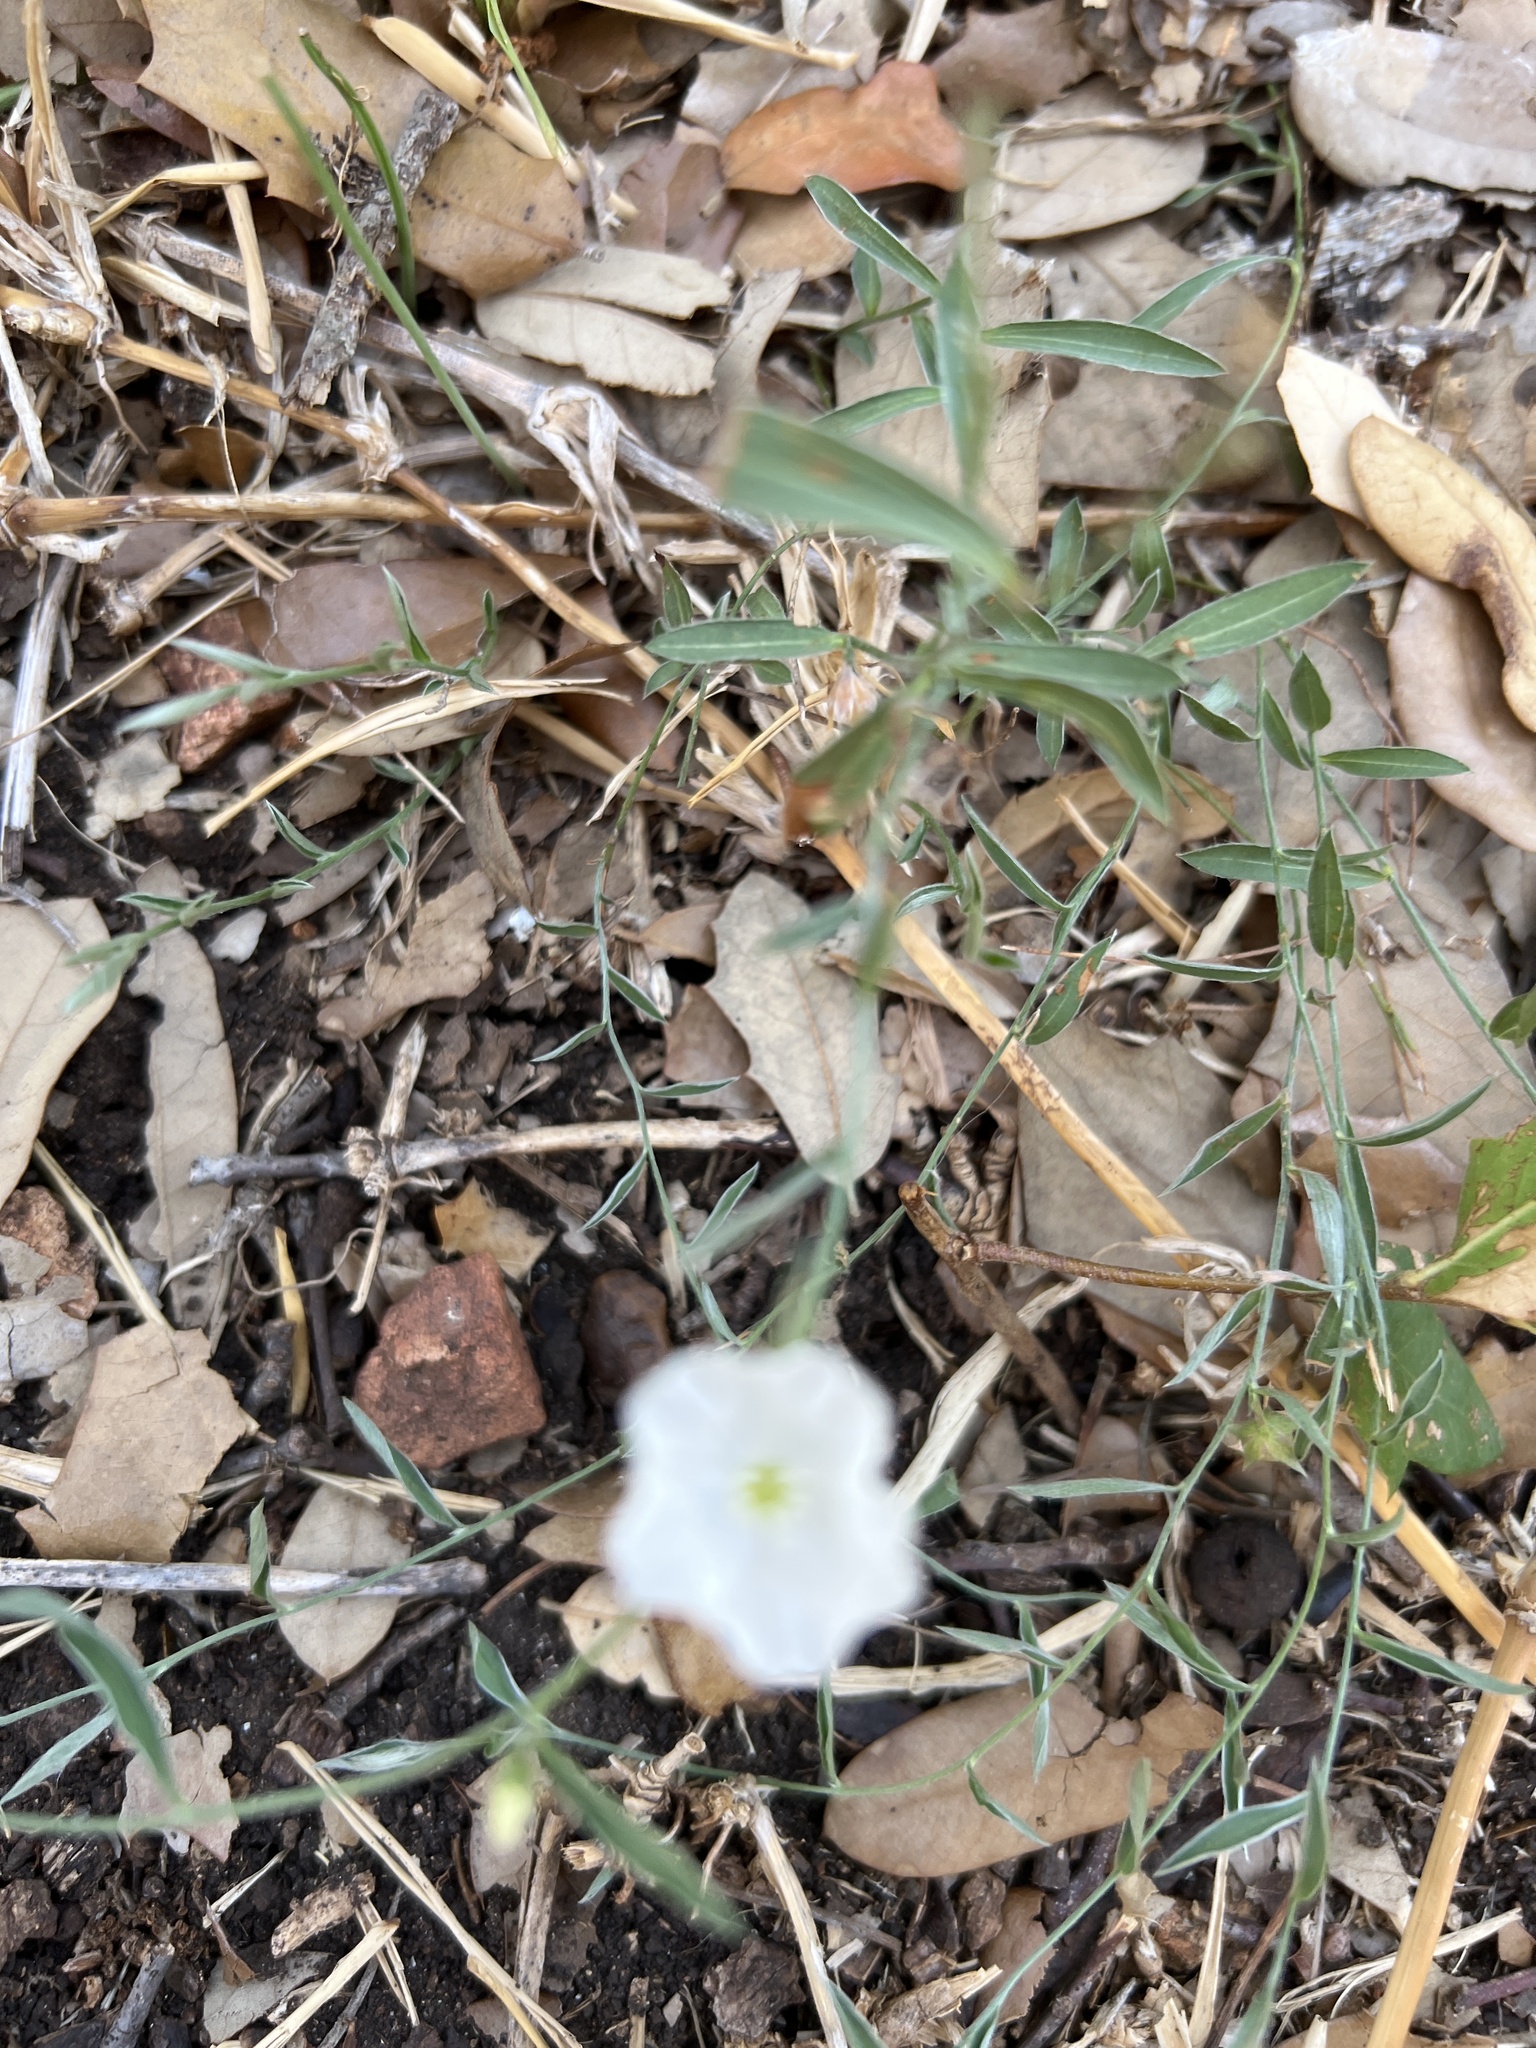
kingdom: Plantae
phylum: Tracheophyta
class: Magnoliopsida
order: Solanales
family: Convolvulaceae
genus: Evolvulus
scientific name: Evolvulus sericeus
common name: Blue dots
